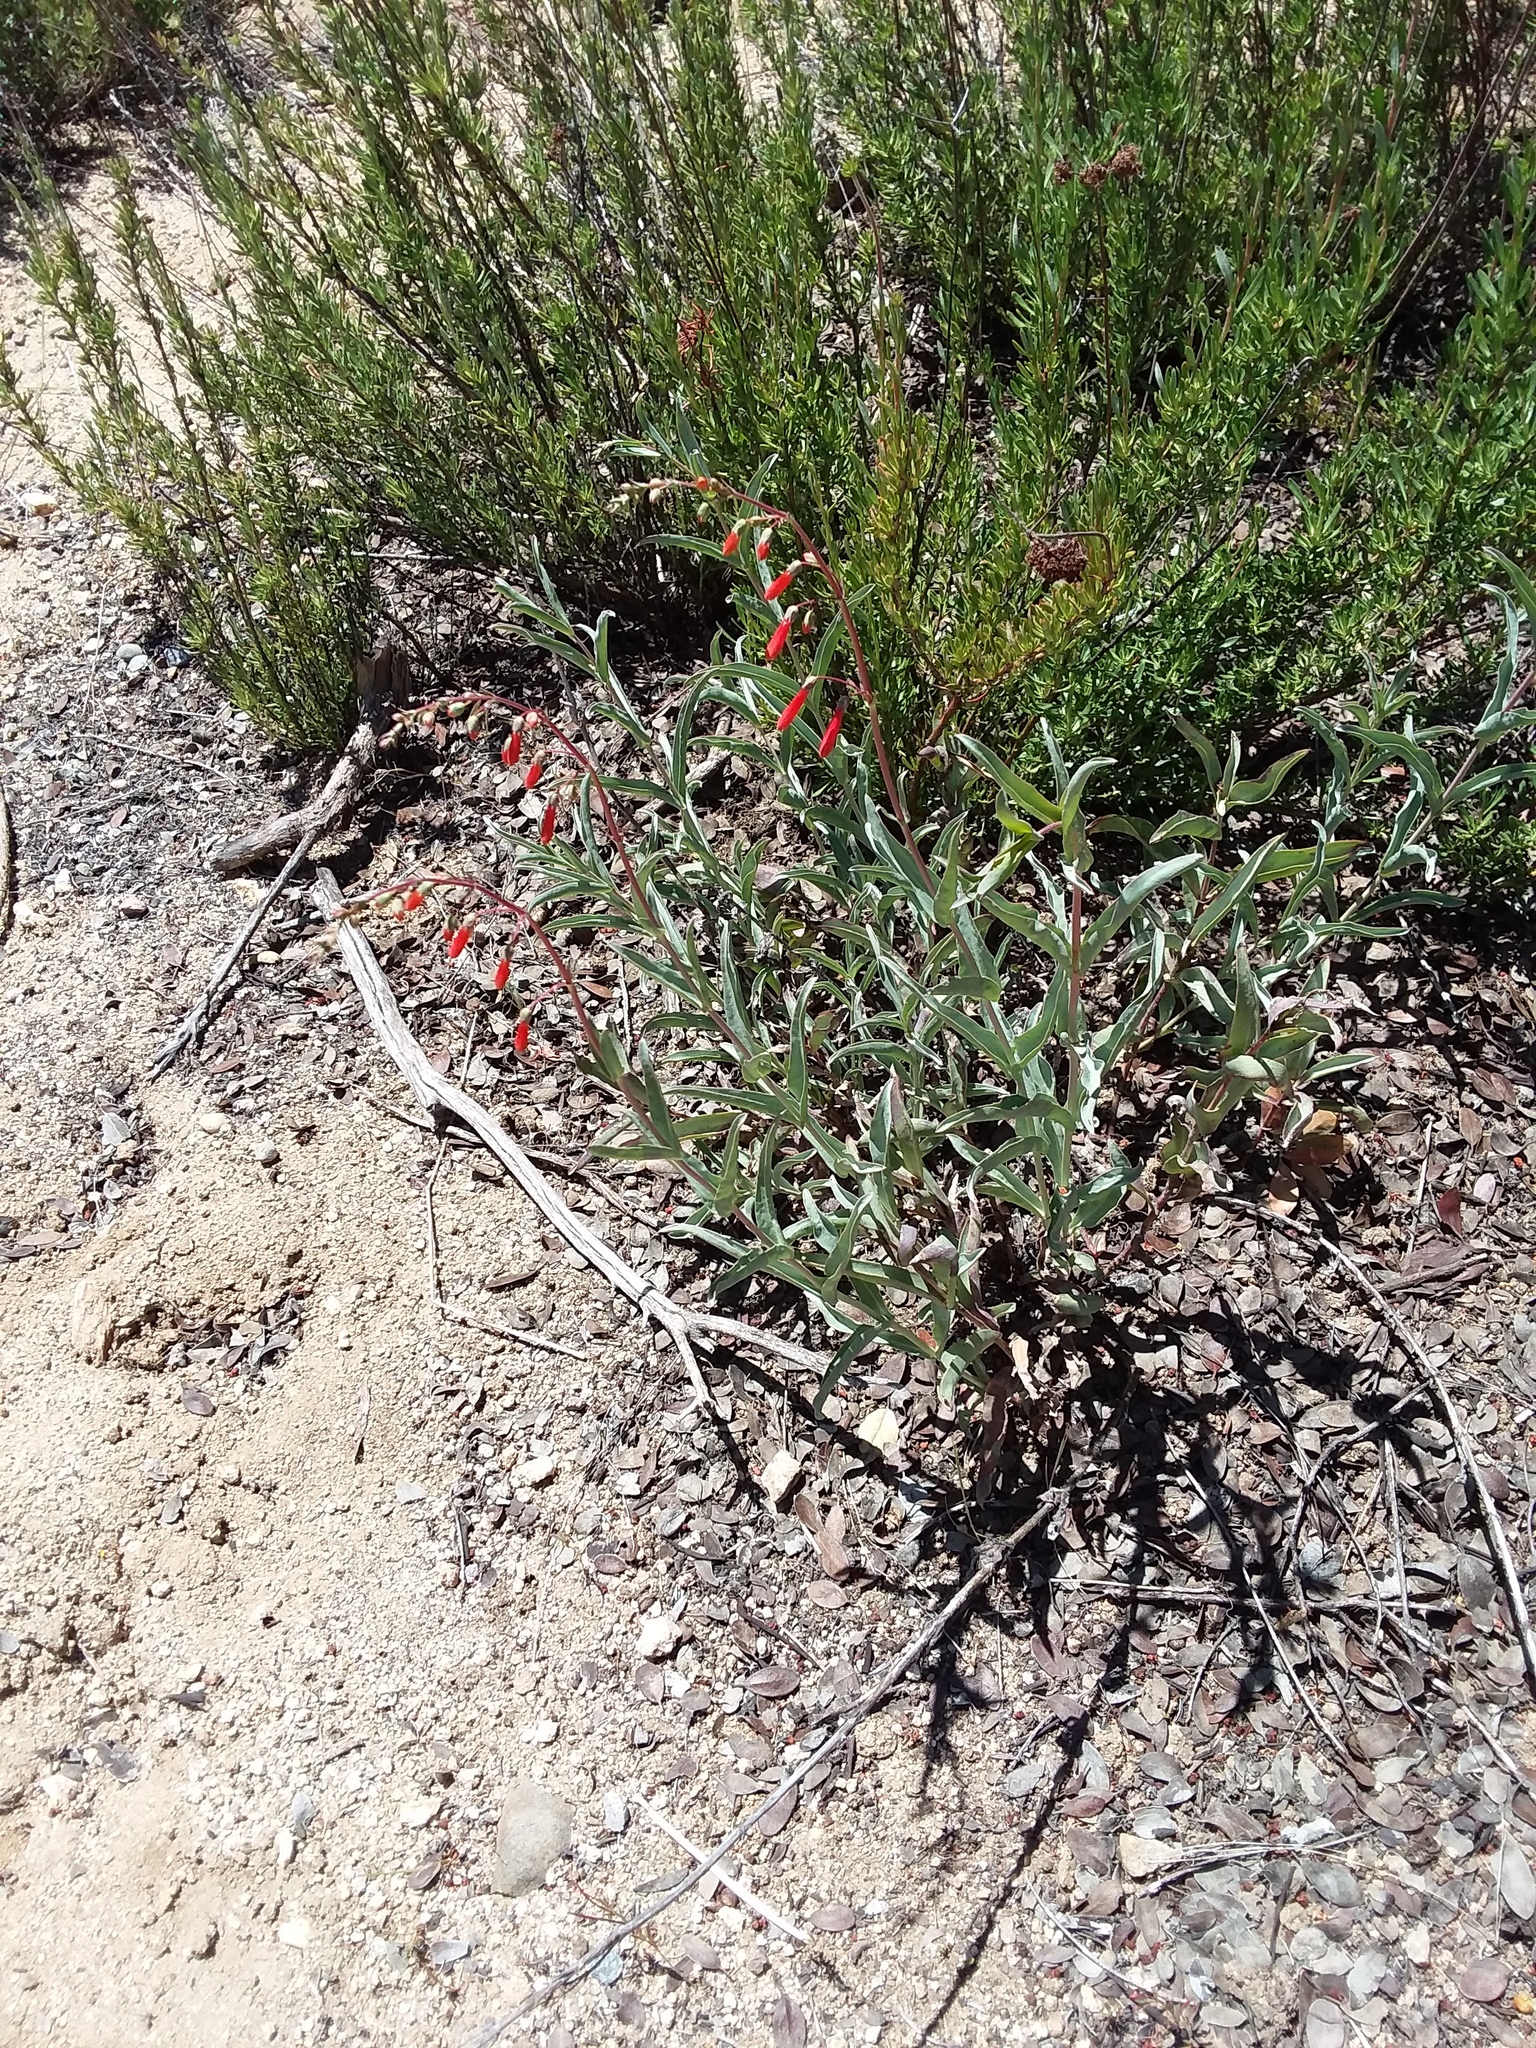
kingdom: Plantae
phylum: Tracheophyta
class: Magnoliopsida
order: Lamiales
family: Plantaginaceae
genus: Penstemon
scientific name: Penstemon centranthifolius
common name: Scarlet bugler
